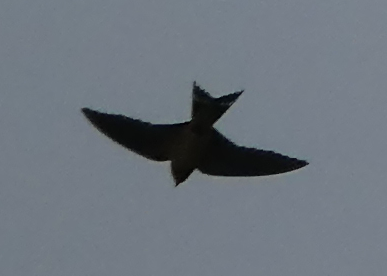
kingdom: Animalia
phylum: Chordata
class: Aves
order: Passeriformes
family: Hirundinidae
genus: Hirundo
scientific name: Hirundo rustica
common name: Barn swallow
